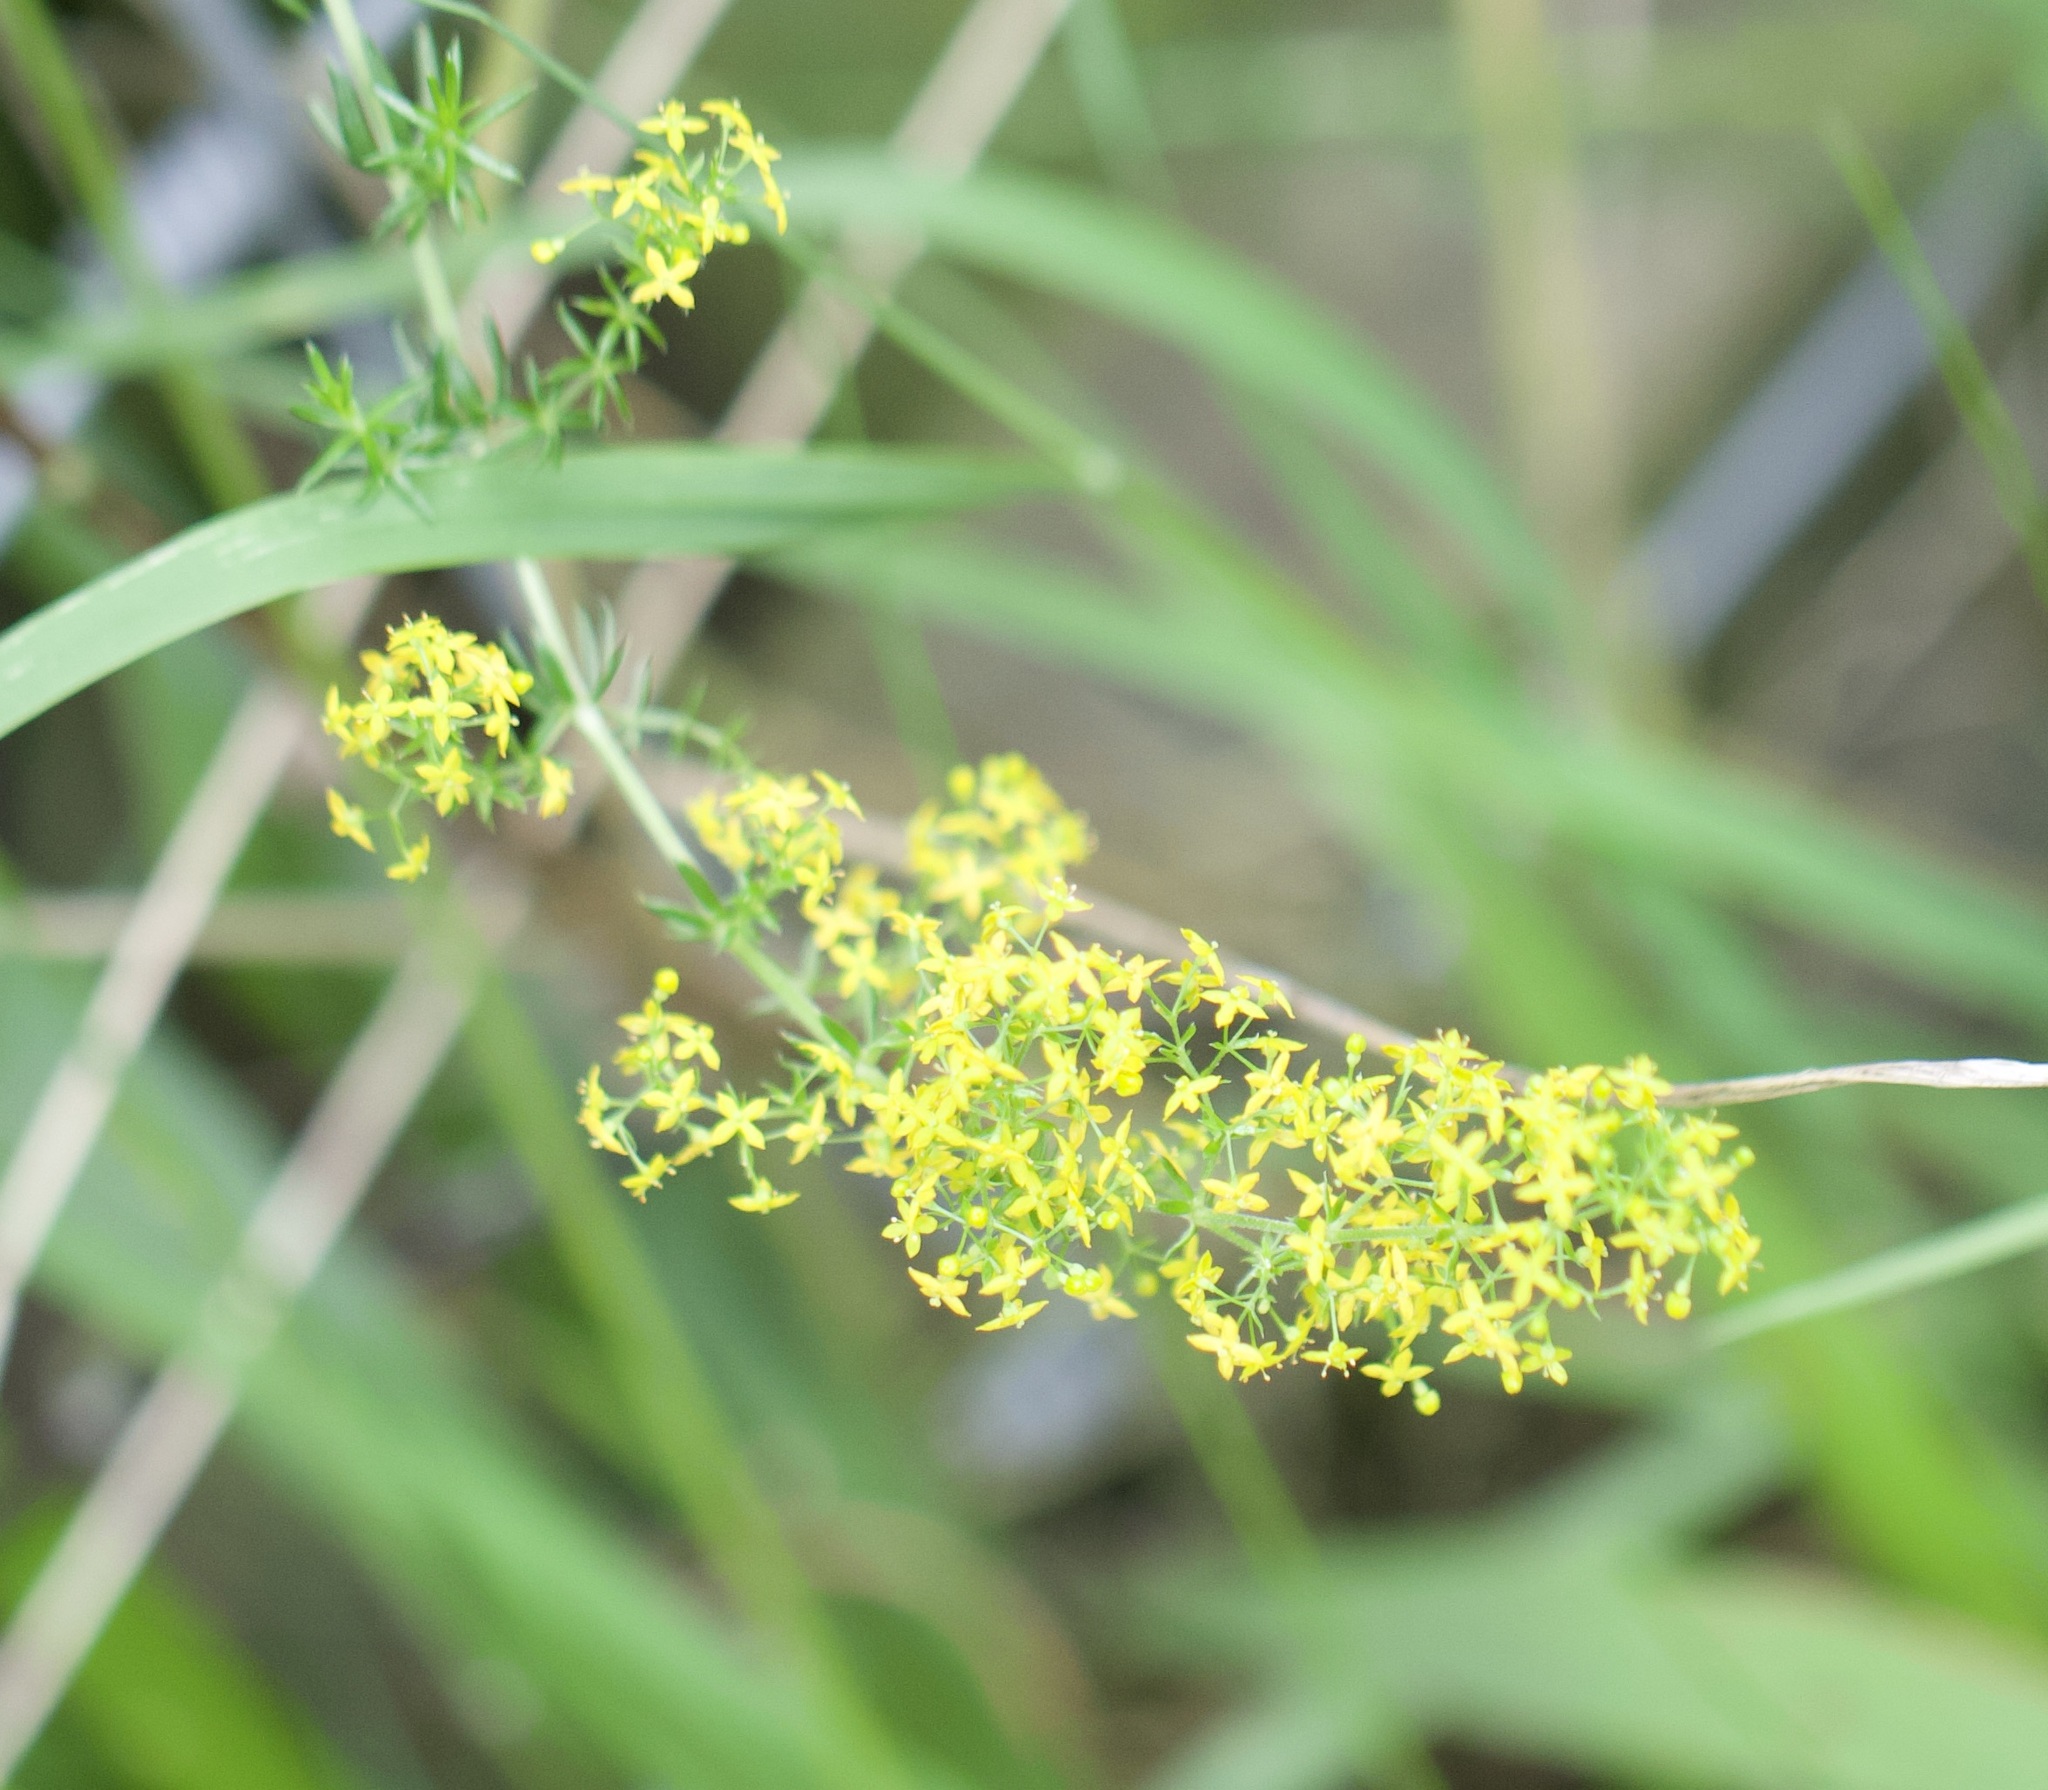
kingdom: Plantae
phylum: Tracheophyta
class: Magnoliopsida
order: Gentianales
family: Rubiaceae
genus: Galium
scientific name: Galium verum
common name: Lady's bedstraw
